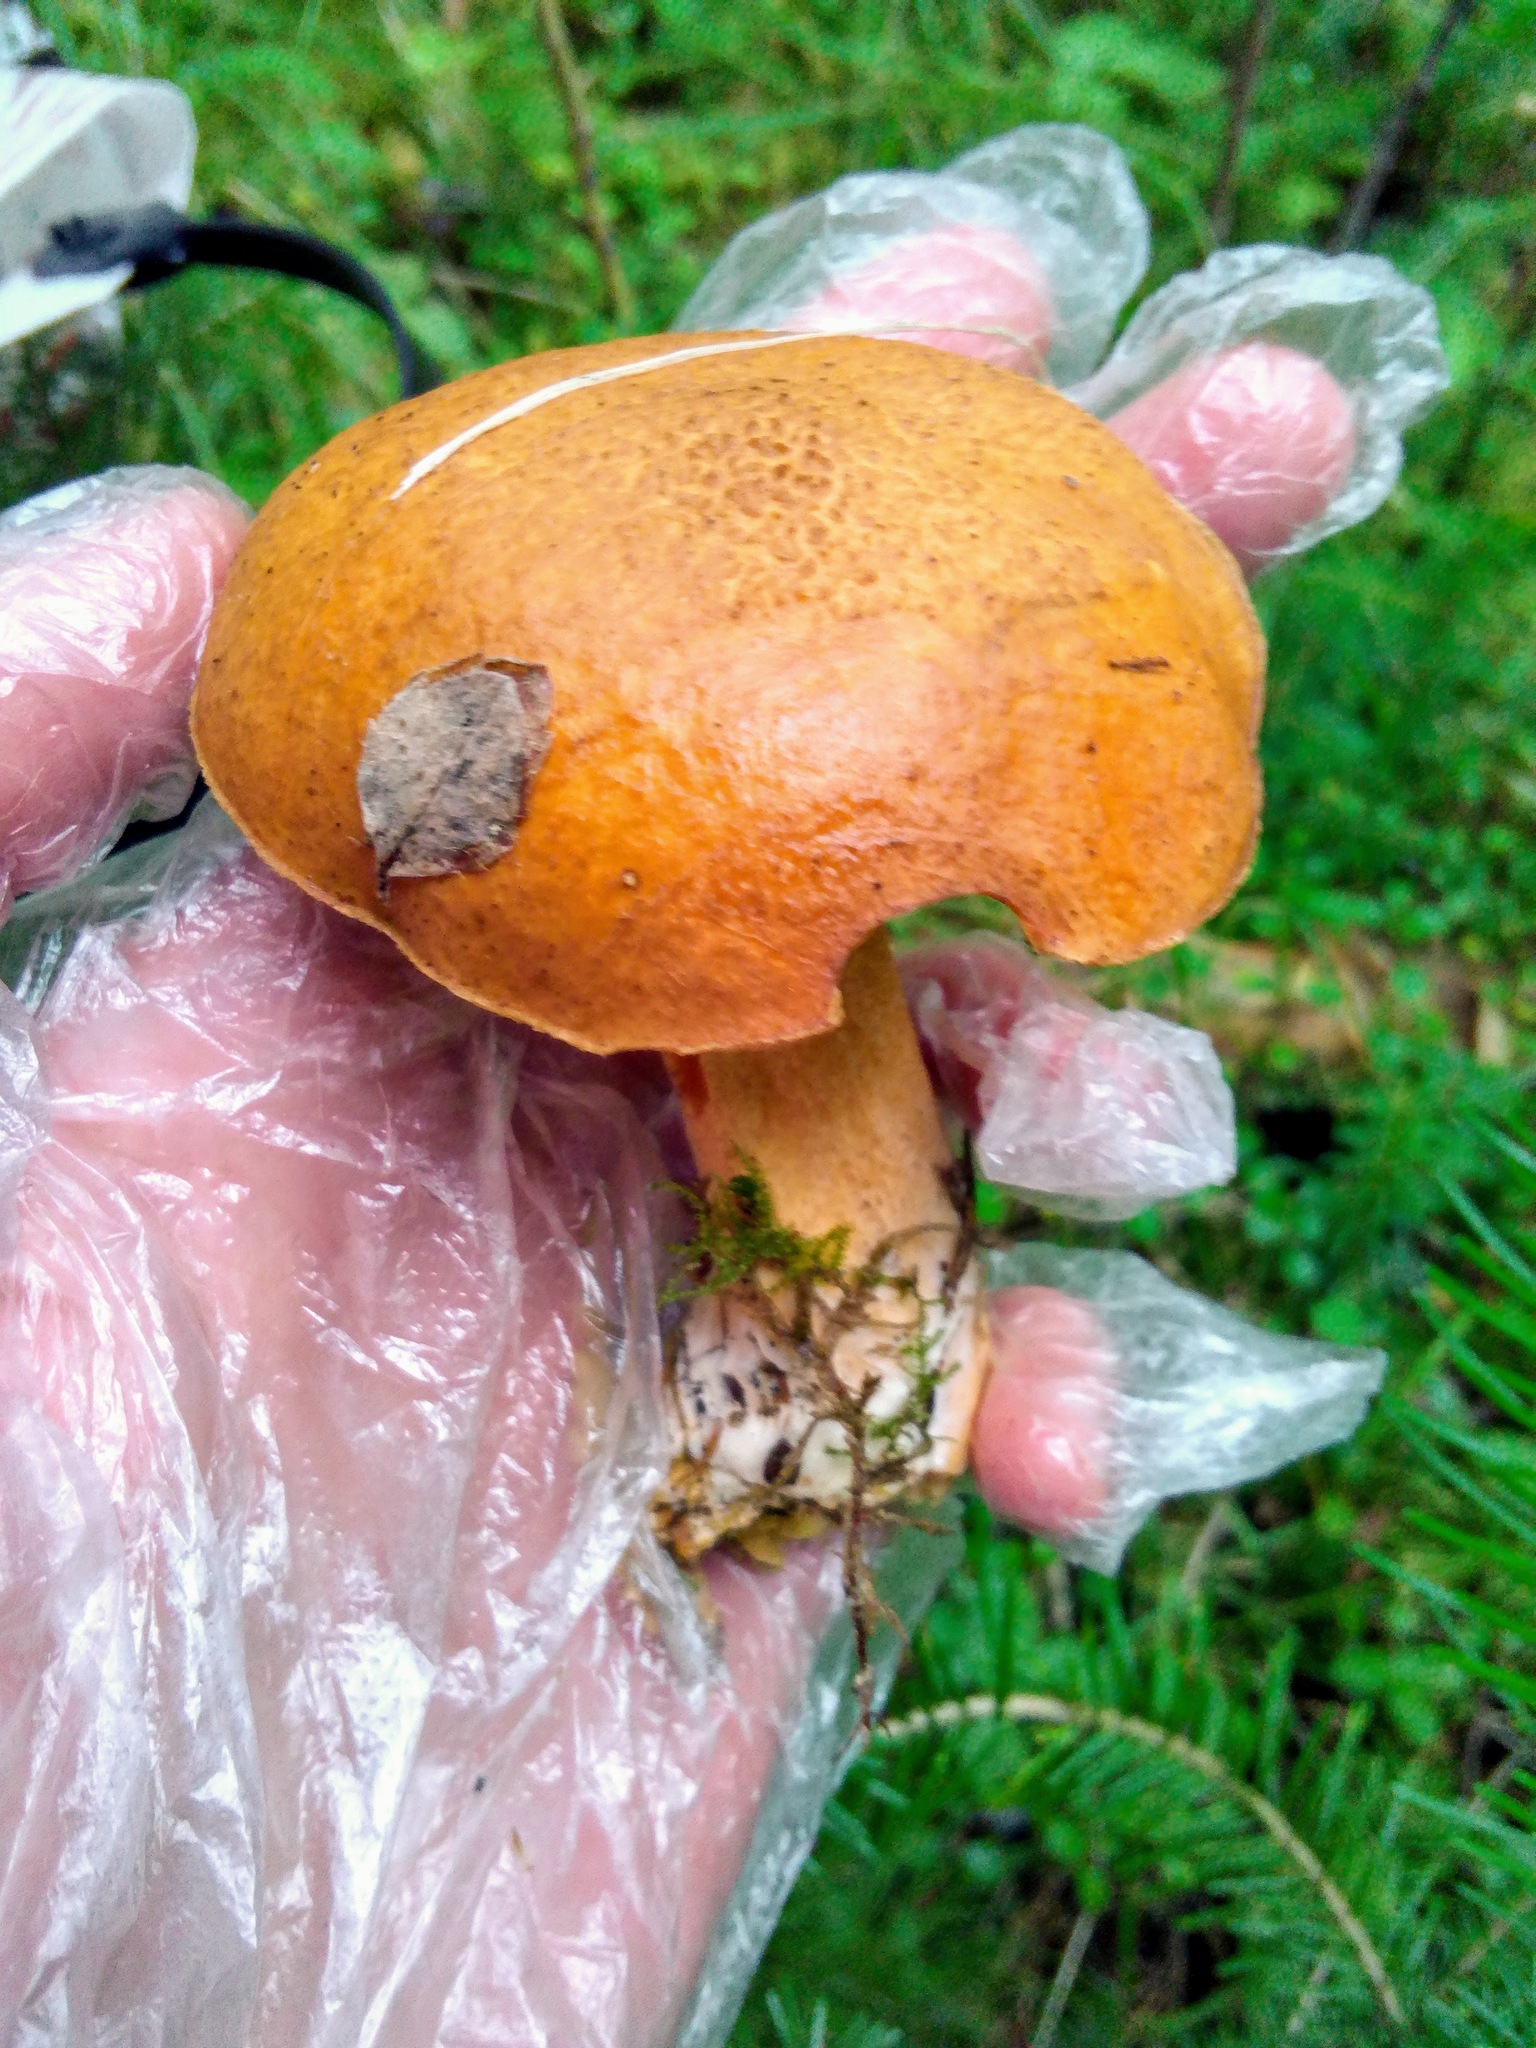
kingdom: Fungi
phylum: Basidiomycota
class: Agaricomycetes
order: Boletales
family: Suillaceae
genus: Suillus
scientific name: Suillus variegatus
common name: Velvet bolete
